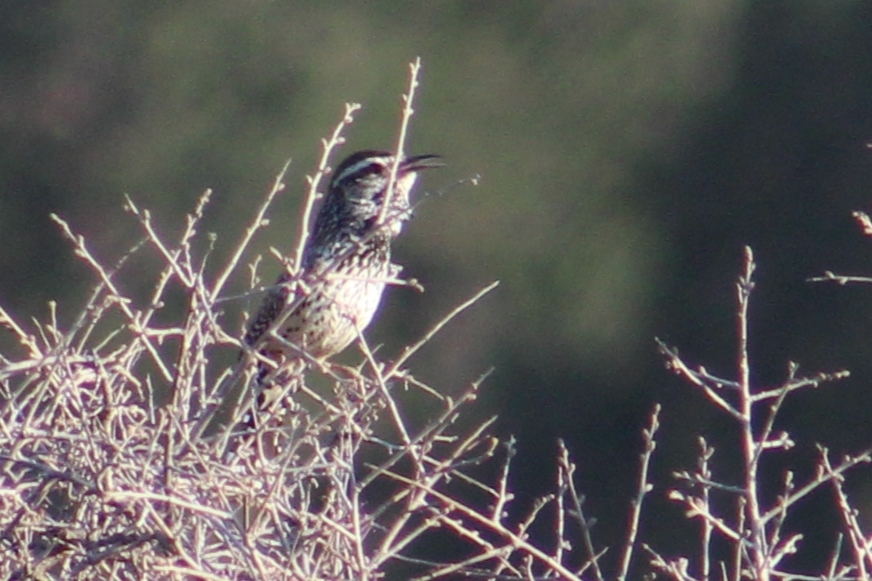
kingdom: Animalia
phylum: Chordata
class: Aves
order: Passeriformes
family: Troglodytidae
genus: Campylorhynchus
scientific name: Campylorhynchus brunneicapillus
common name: Cactus wren
